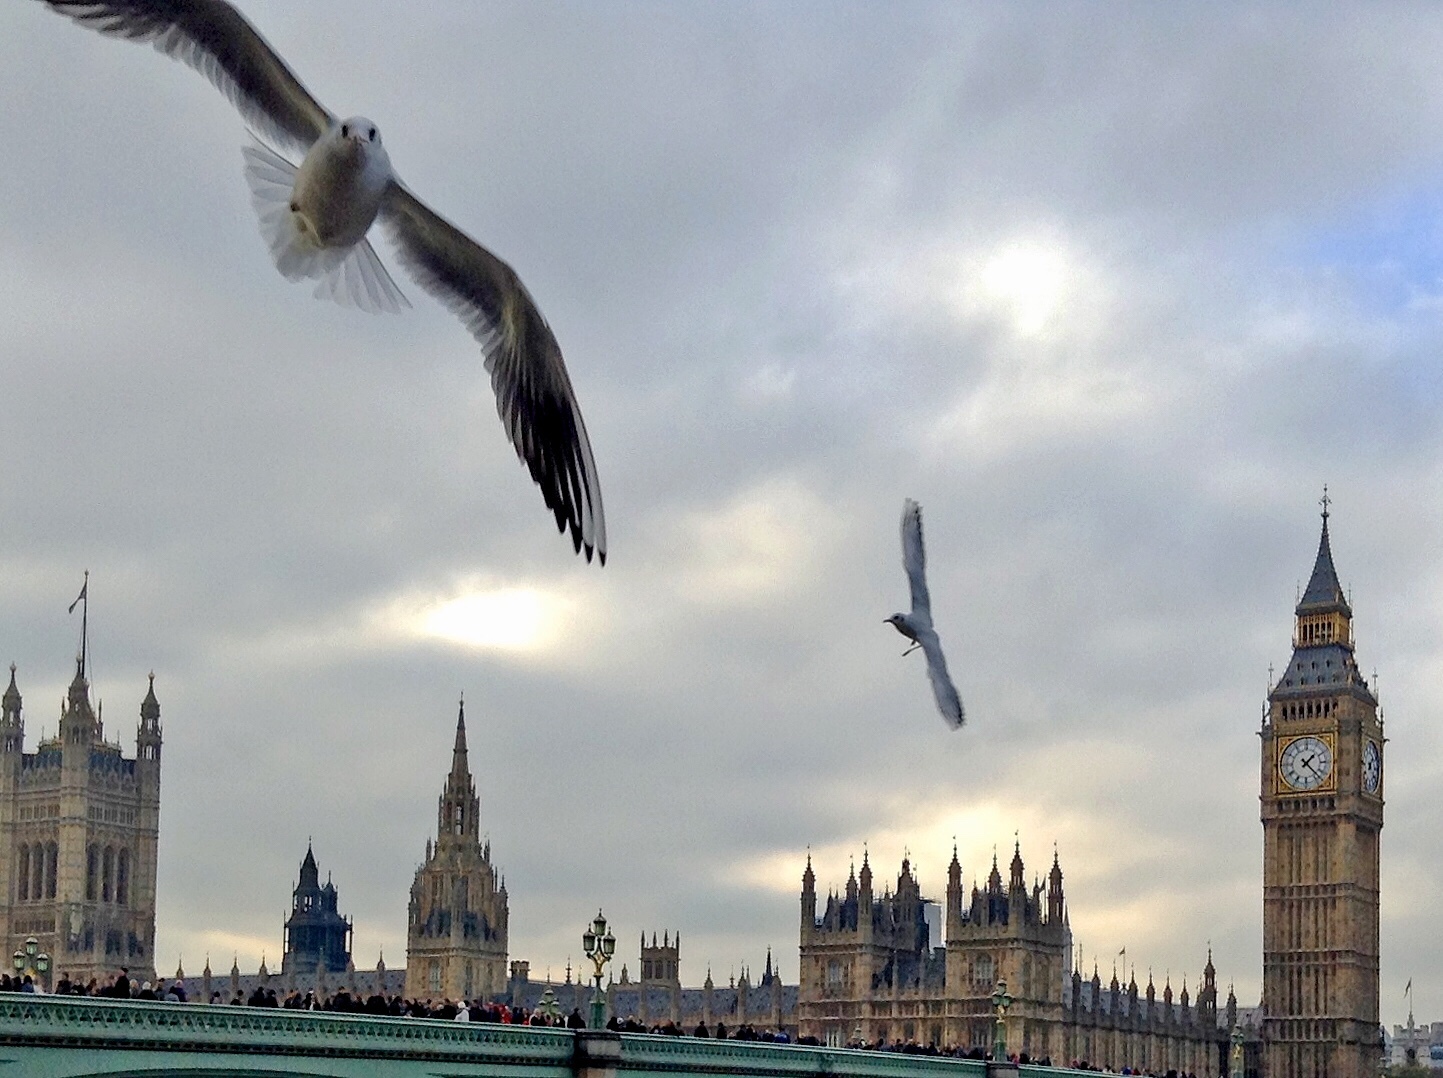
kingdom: Animalia
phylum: Chordata
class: Aves
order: Charadriiformes
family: Laridae
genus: Chroicocephalus
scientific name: Chroicocephalus ridibundus
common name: Black-headed gull
